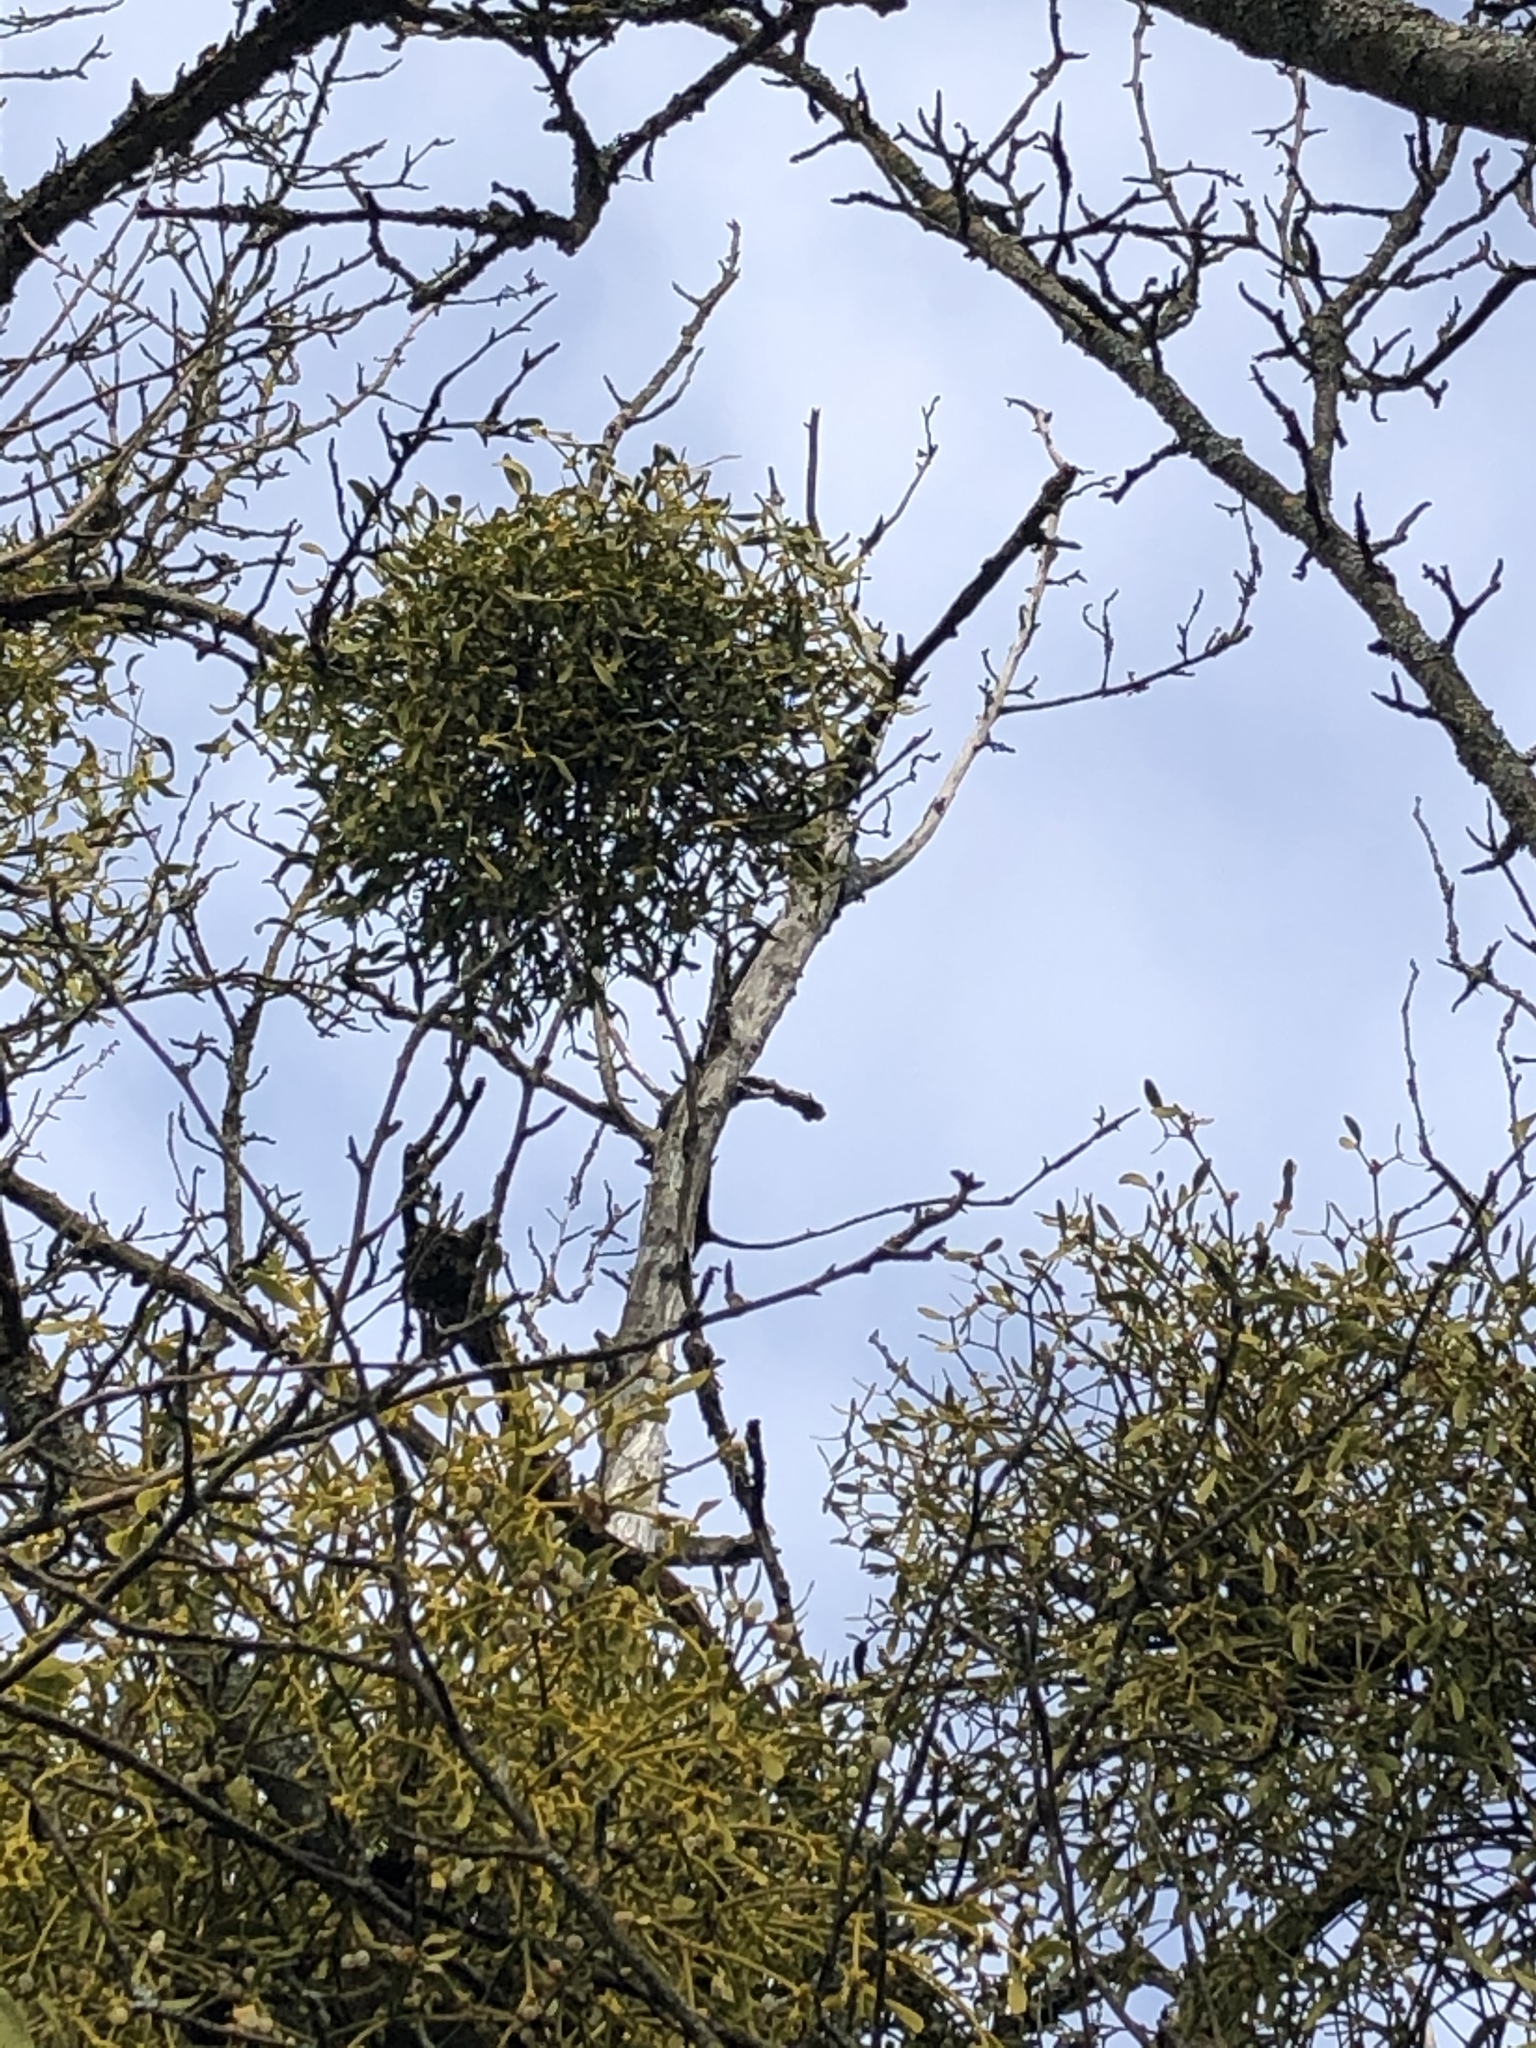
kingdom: Plantae
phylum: Tracheophyta
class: Magnoliopsida
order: Santalales
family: Viscaceae
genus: Viscum
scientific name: Viscum album
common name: Mistletoe
